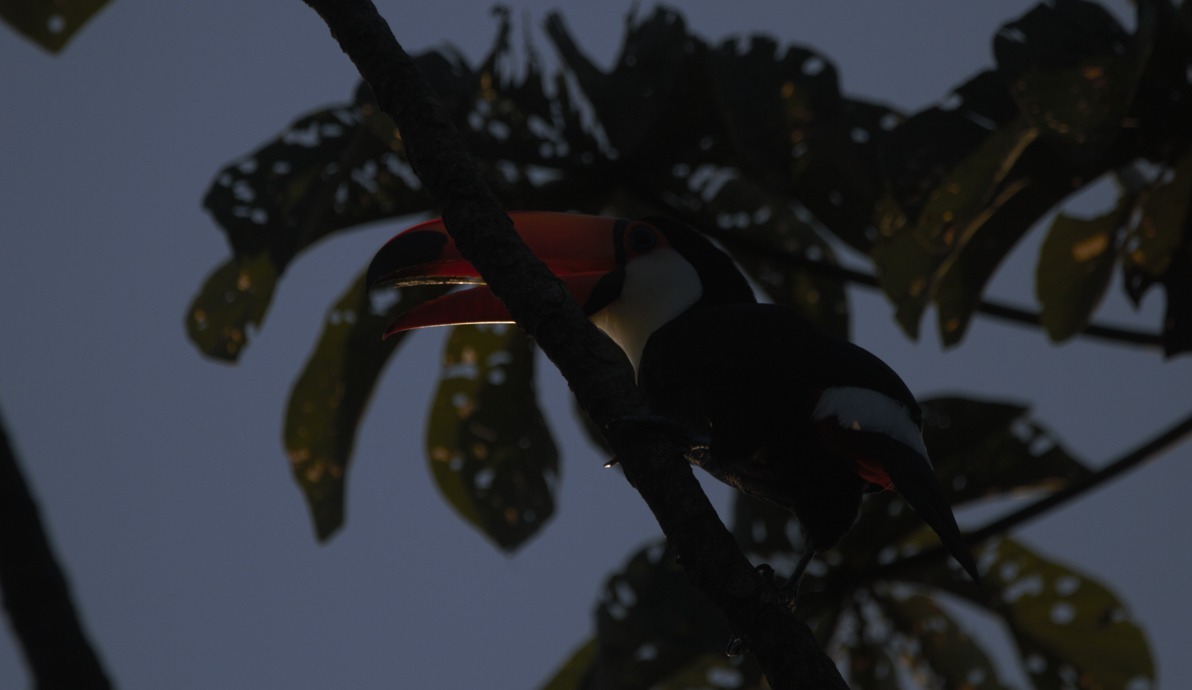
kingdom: Animalia
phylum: Chordata
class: Aves
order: Piciformes
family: Ramphastidae
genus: Ramphastos
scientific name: Ramphastos toco
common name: Toco toucan
